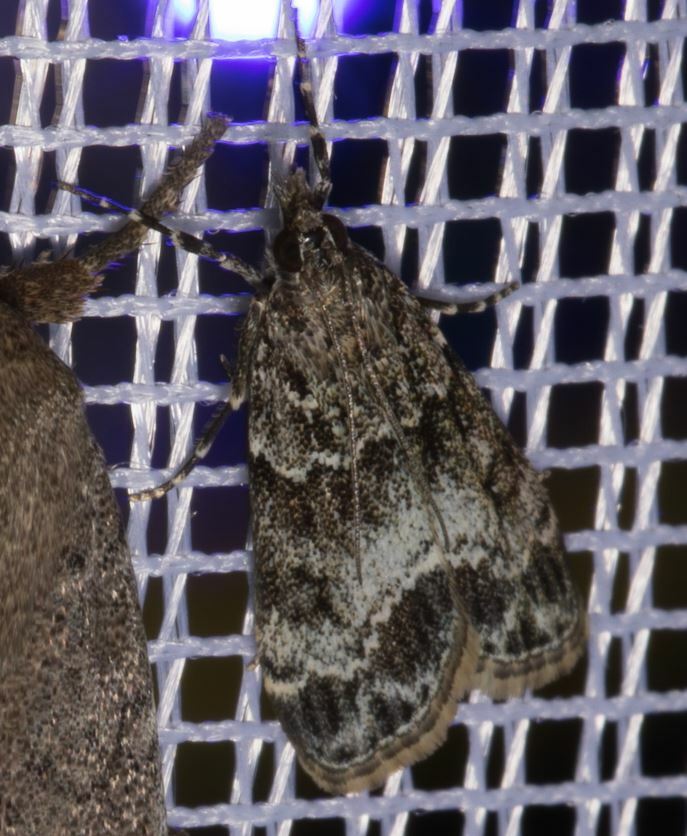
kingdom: Animalia
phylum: Arthropoda
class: Insecta
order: Lepidoptera
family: Crambidae
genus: Eudonia
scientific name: Eudonia mercurella
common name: Small grey
